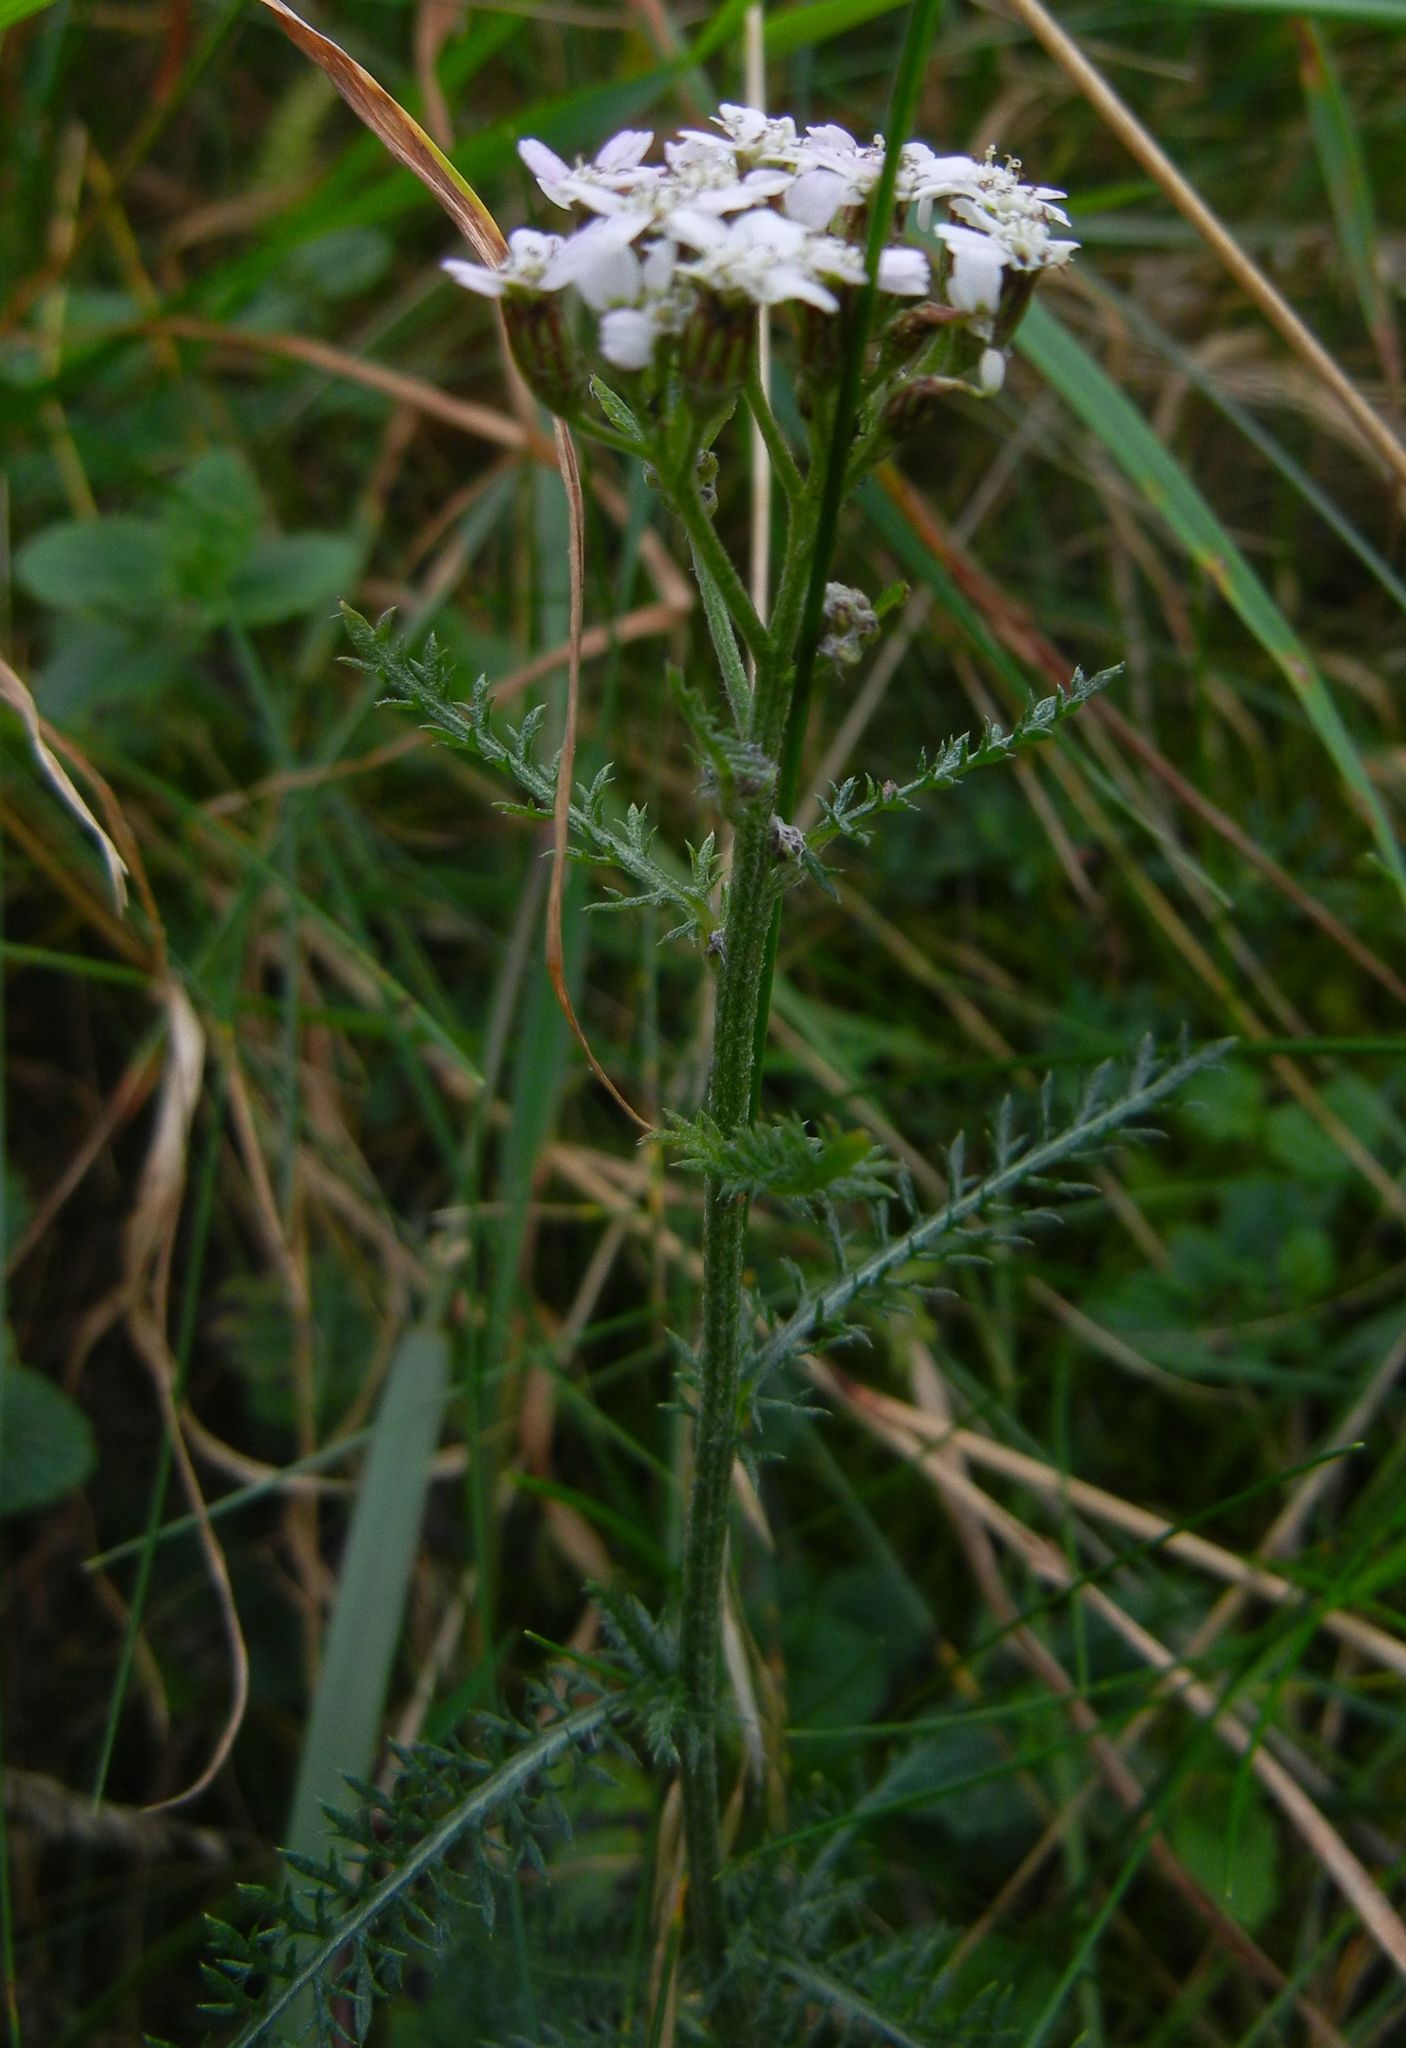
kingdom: Plantae
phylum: Tracheophyta
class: Magnoliopsida
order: Asterales
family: Asteraceae
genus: Achillea
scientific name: Achillea millefolium
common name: Yarrow
